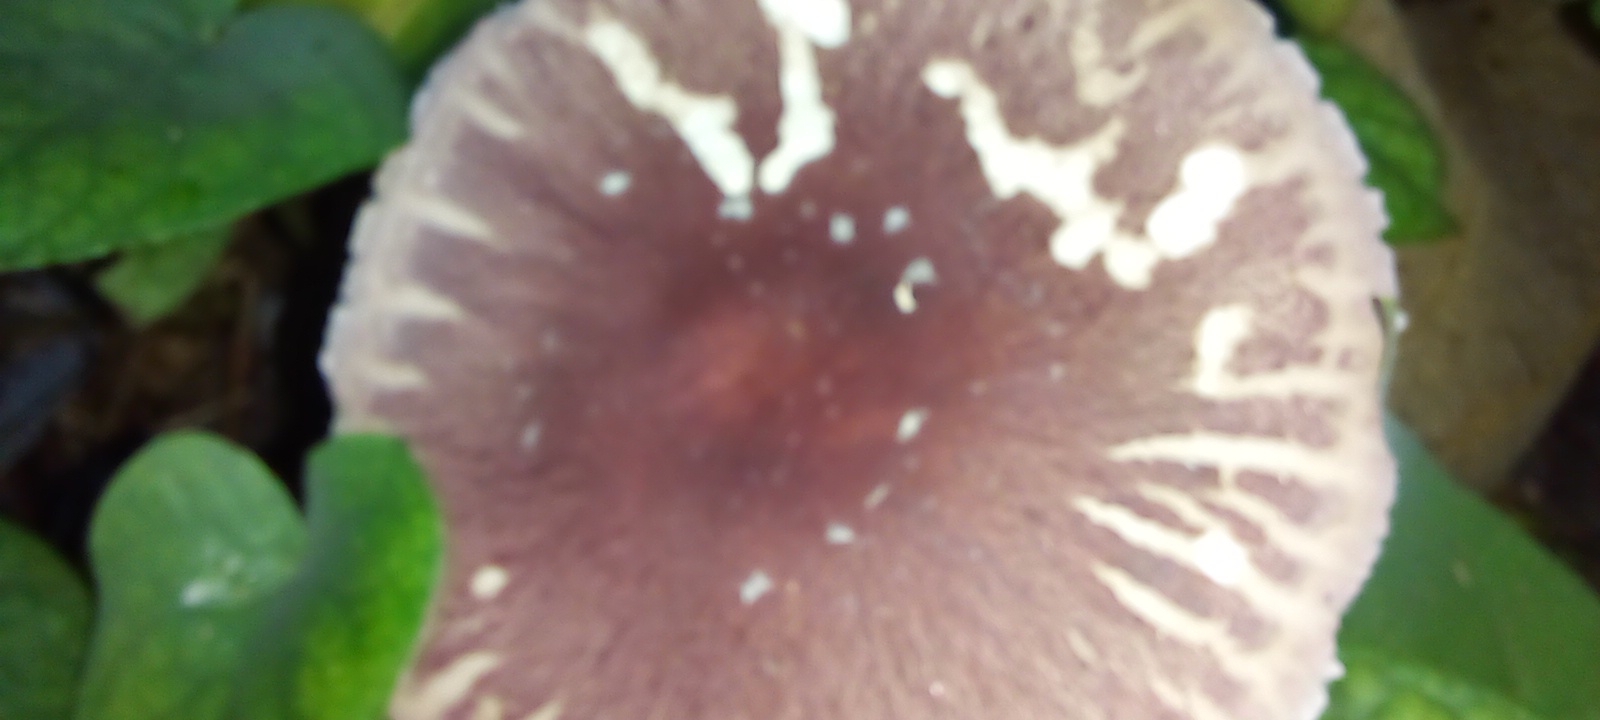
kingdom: Fungi
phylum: Basidiomycota
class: Agaricomycetes
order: Agaricales
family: Agaricaceae
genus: Leucoagaricus
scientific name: Leucoagaricus lilaceus
